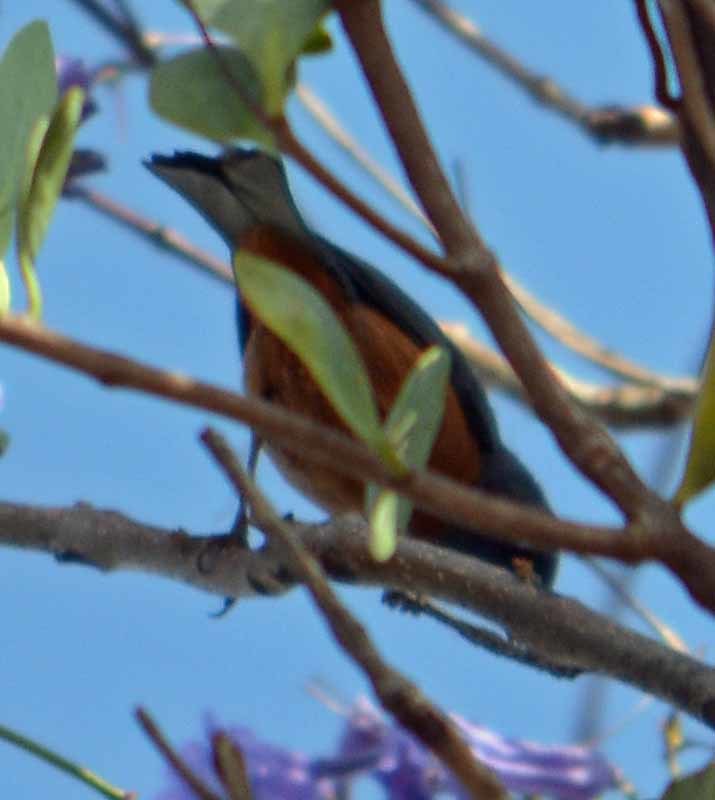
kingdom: Animalia
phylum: Chordata
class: Aves
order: Passeriformes
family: Thraupidae
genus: Diglossa
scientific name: Diglossa baritula
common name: Cinnamon-bellied flowerpiercer
